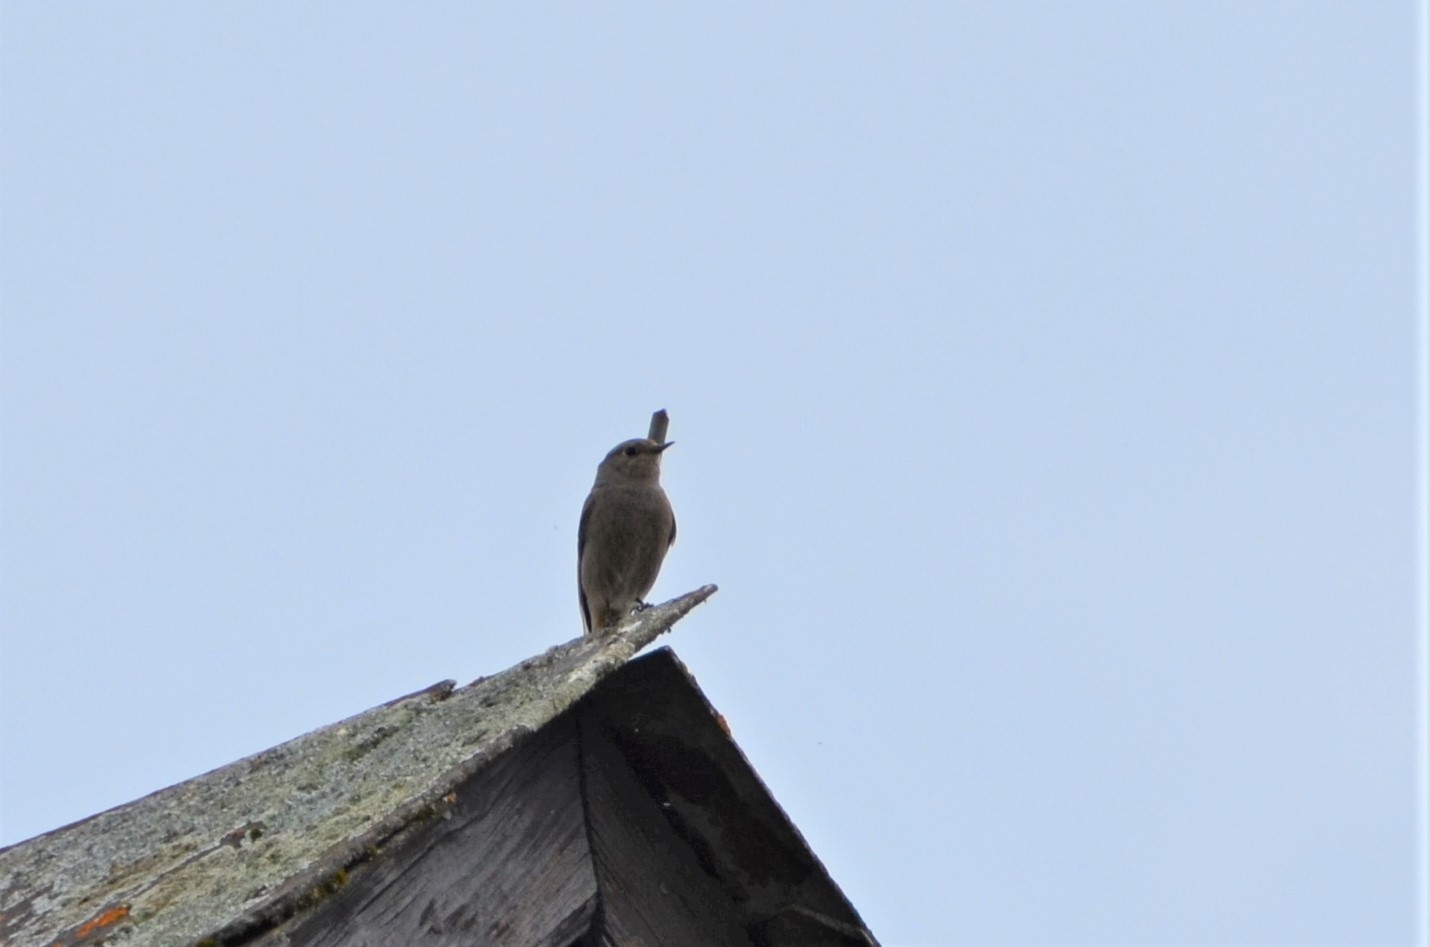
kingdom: Animalia
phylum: Chordata
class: Aves
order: Passeriformes
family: Muscicapidae
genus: Phoenicurus
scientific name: Phoenicurus ochruros
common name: Black redstart
